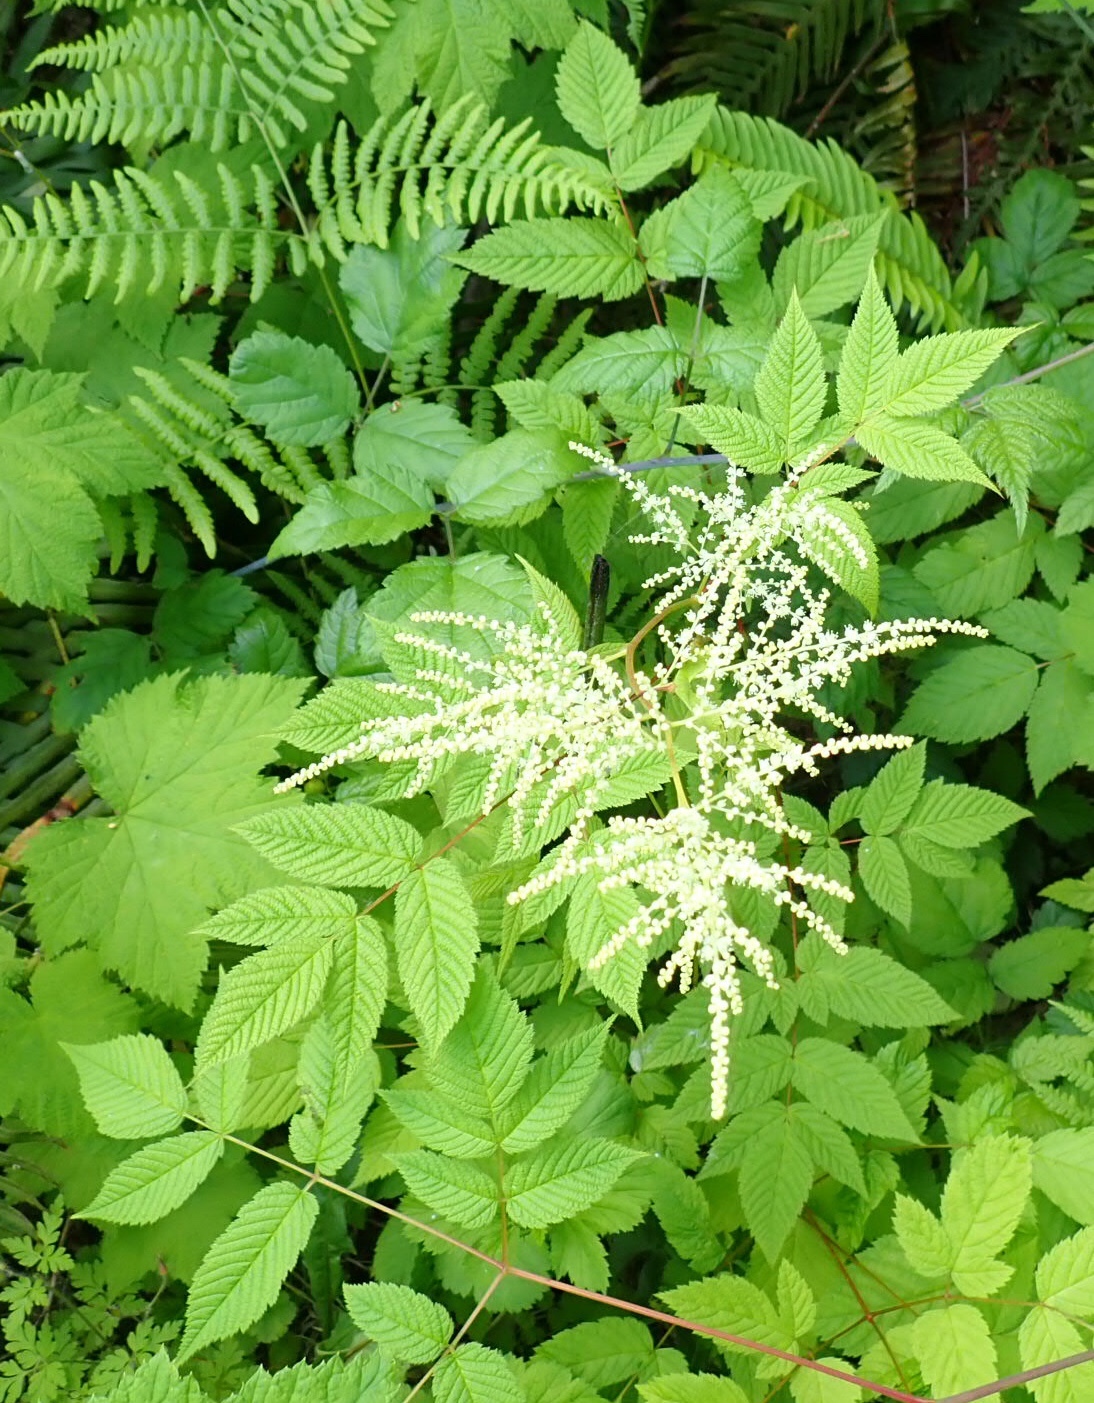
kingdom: Plantae
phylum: Tracheophyta
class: Magnoliopsida
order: Rosales
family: Rosaceae
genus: Aruncus
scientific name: Aruncus dioicus
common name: Buck's-beard
